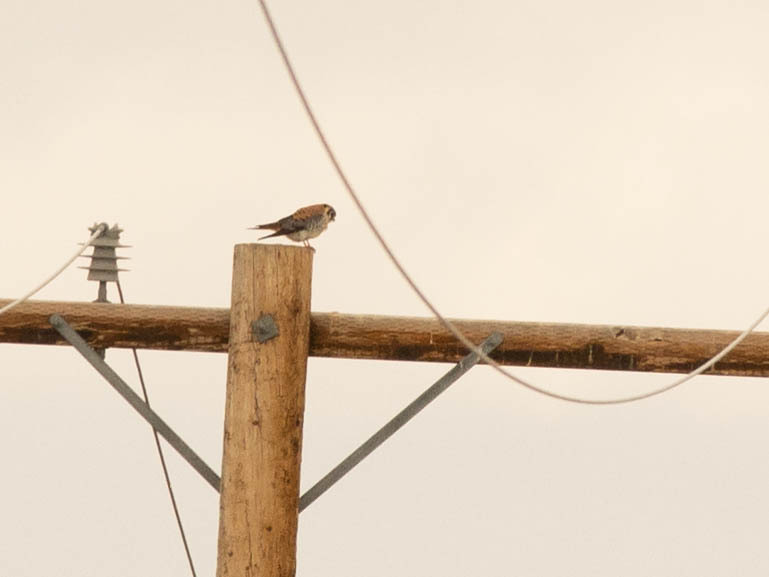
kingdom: Animalia
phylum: Chordata
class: Aves
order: Falconiformes
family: Falconidae
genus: Falco
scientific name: Falco sparverius
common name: American kestrel
